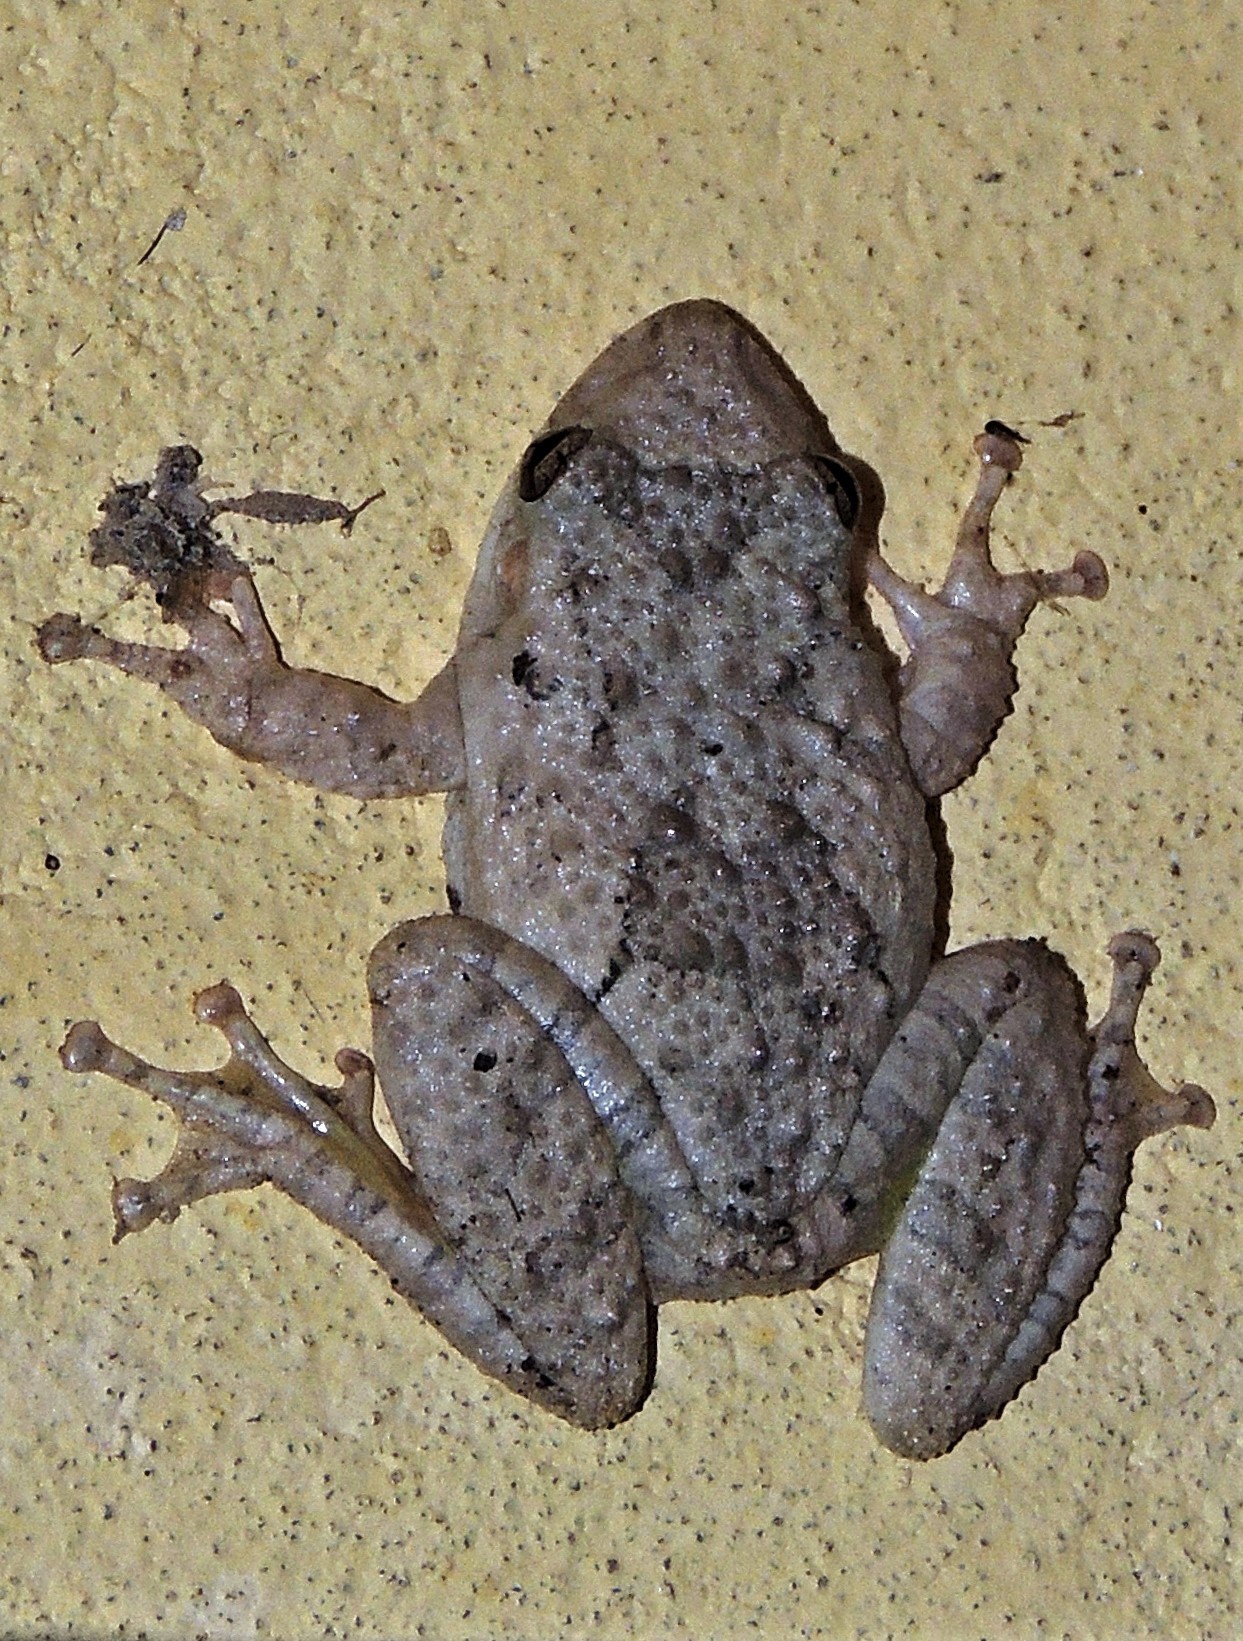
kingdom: Animalia
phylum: Chordata
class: Amphibia
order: Anura
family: Hylidae
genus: Scinax
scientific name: Scinax acuminatus
